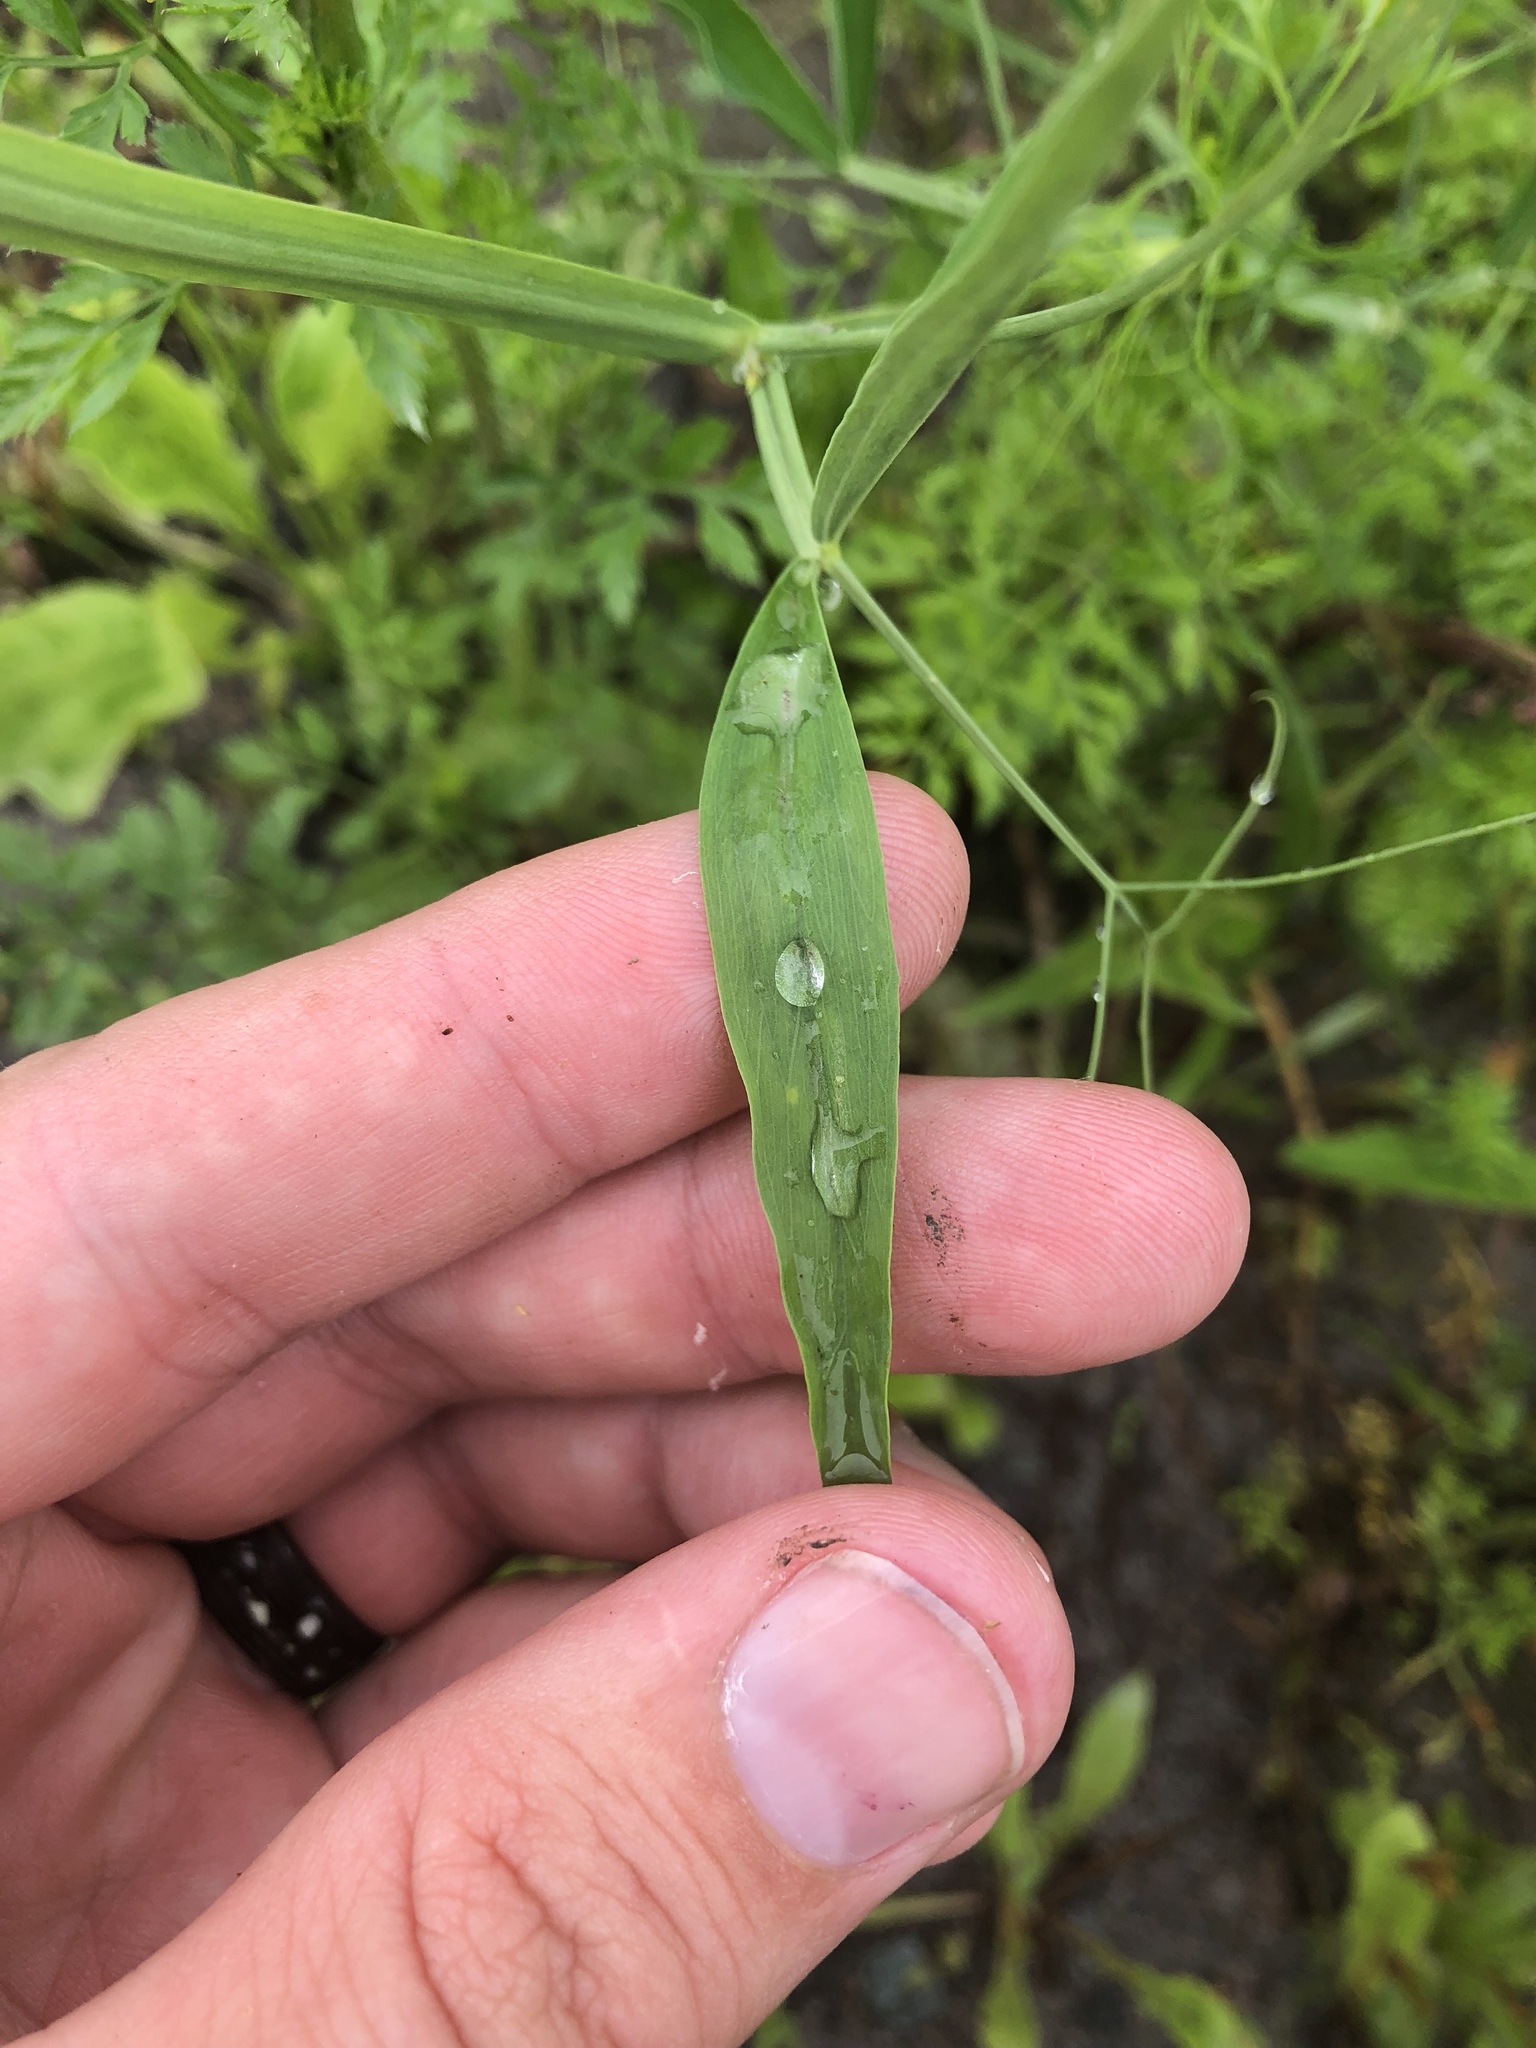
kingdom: Plantae
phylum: Tracheophyta
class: Magnoliopsida
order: Fabales
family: Fabaceae
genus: Lathyrus
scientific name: Lathyrus hirsutus
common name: Hairy vetchling
